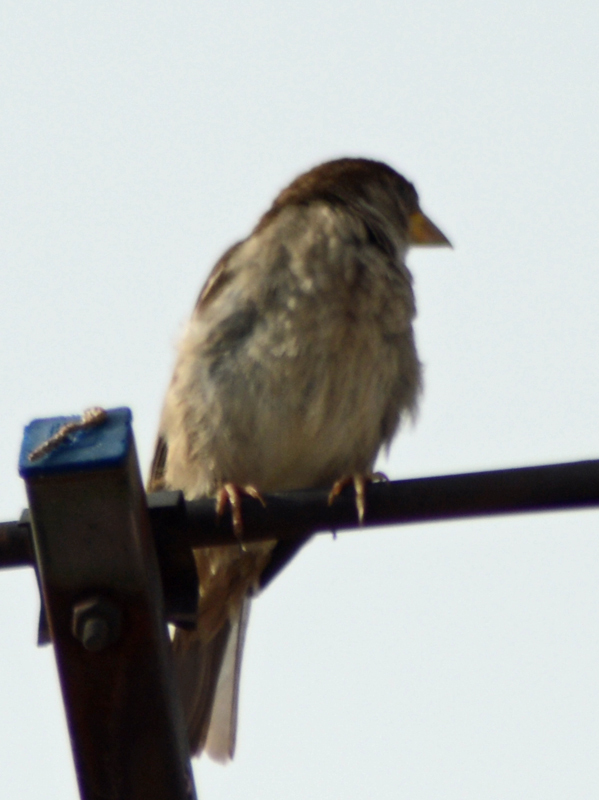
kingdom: Animalia
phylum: Chordata
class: Aves
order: Passeriformes
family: Passeridae
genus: Passer
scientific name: Passer domesticus
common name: House sparrow
